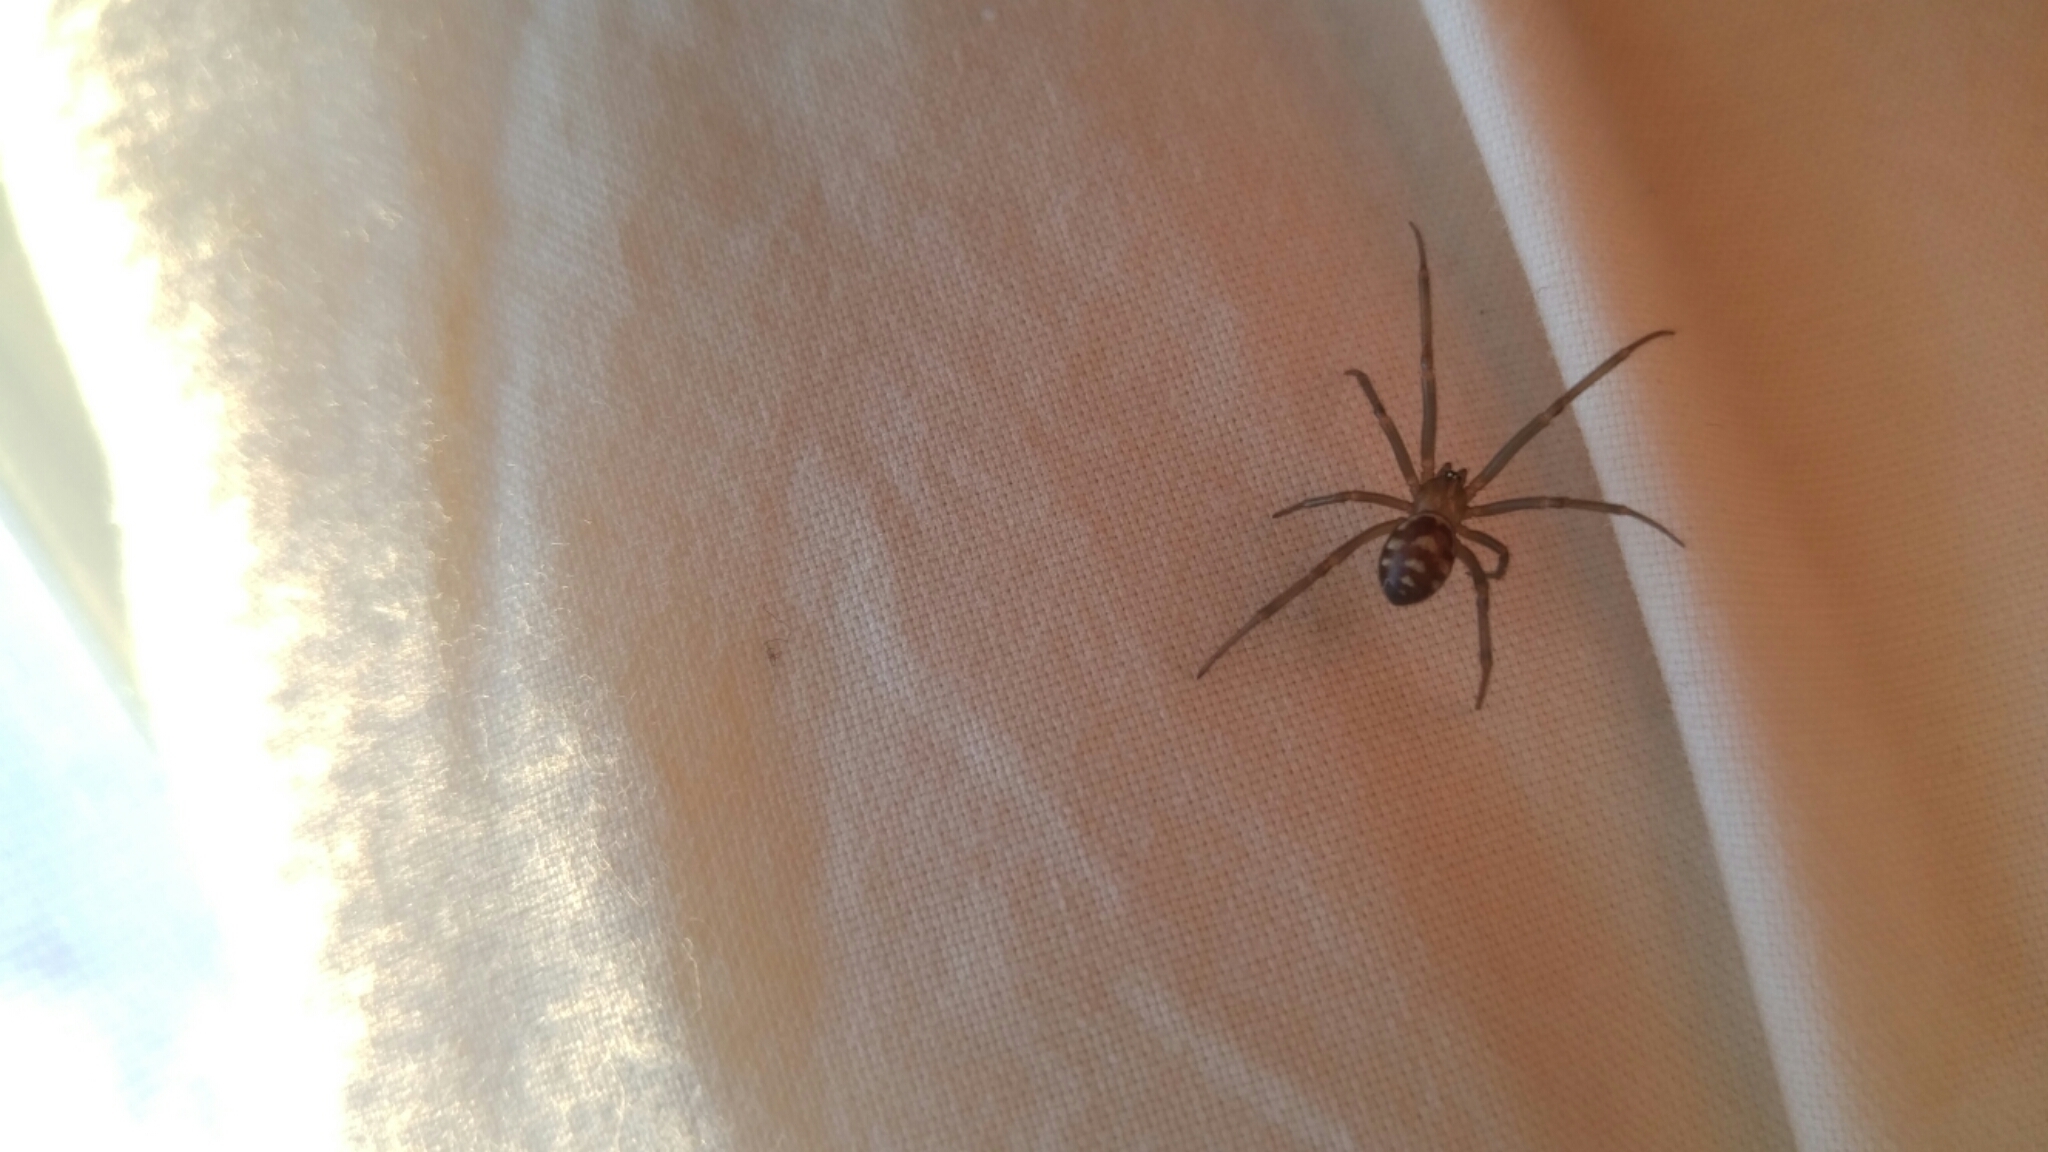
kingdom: Animalia
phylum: Arthropoda
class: Arachnida
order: Araneae
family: Theridiidae
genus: Steatoda
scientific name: Steatoda grossa
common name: False black widow
